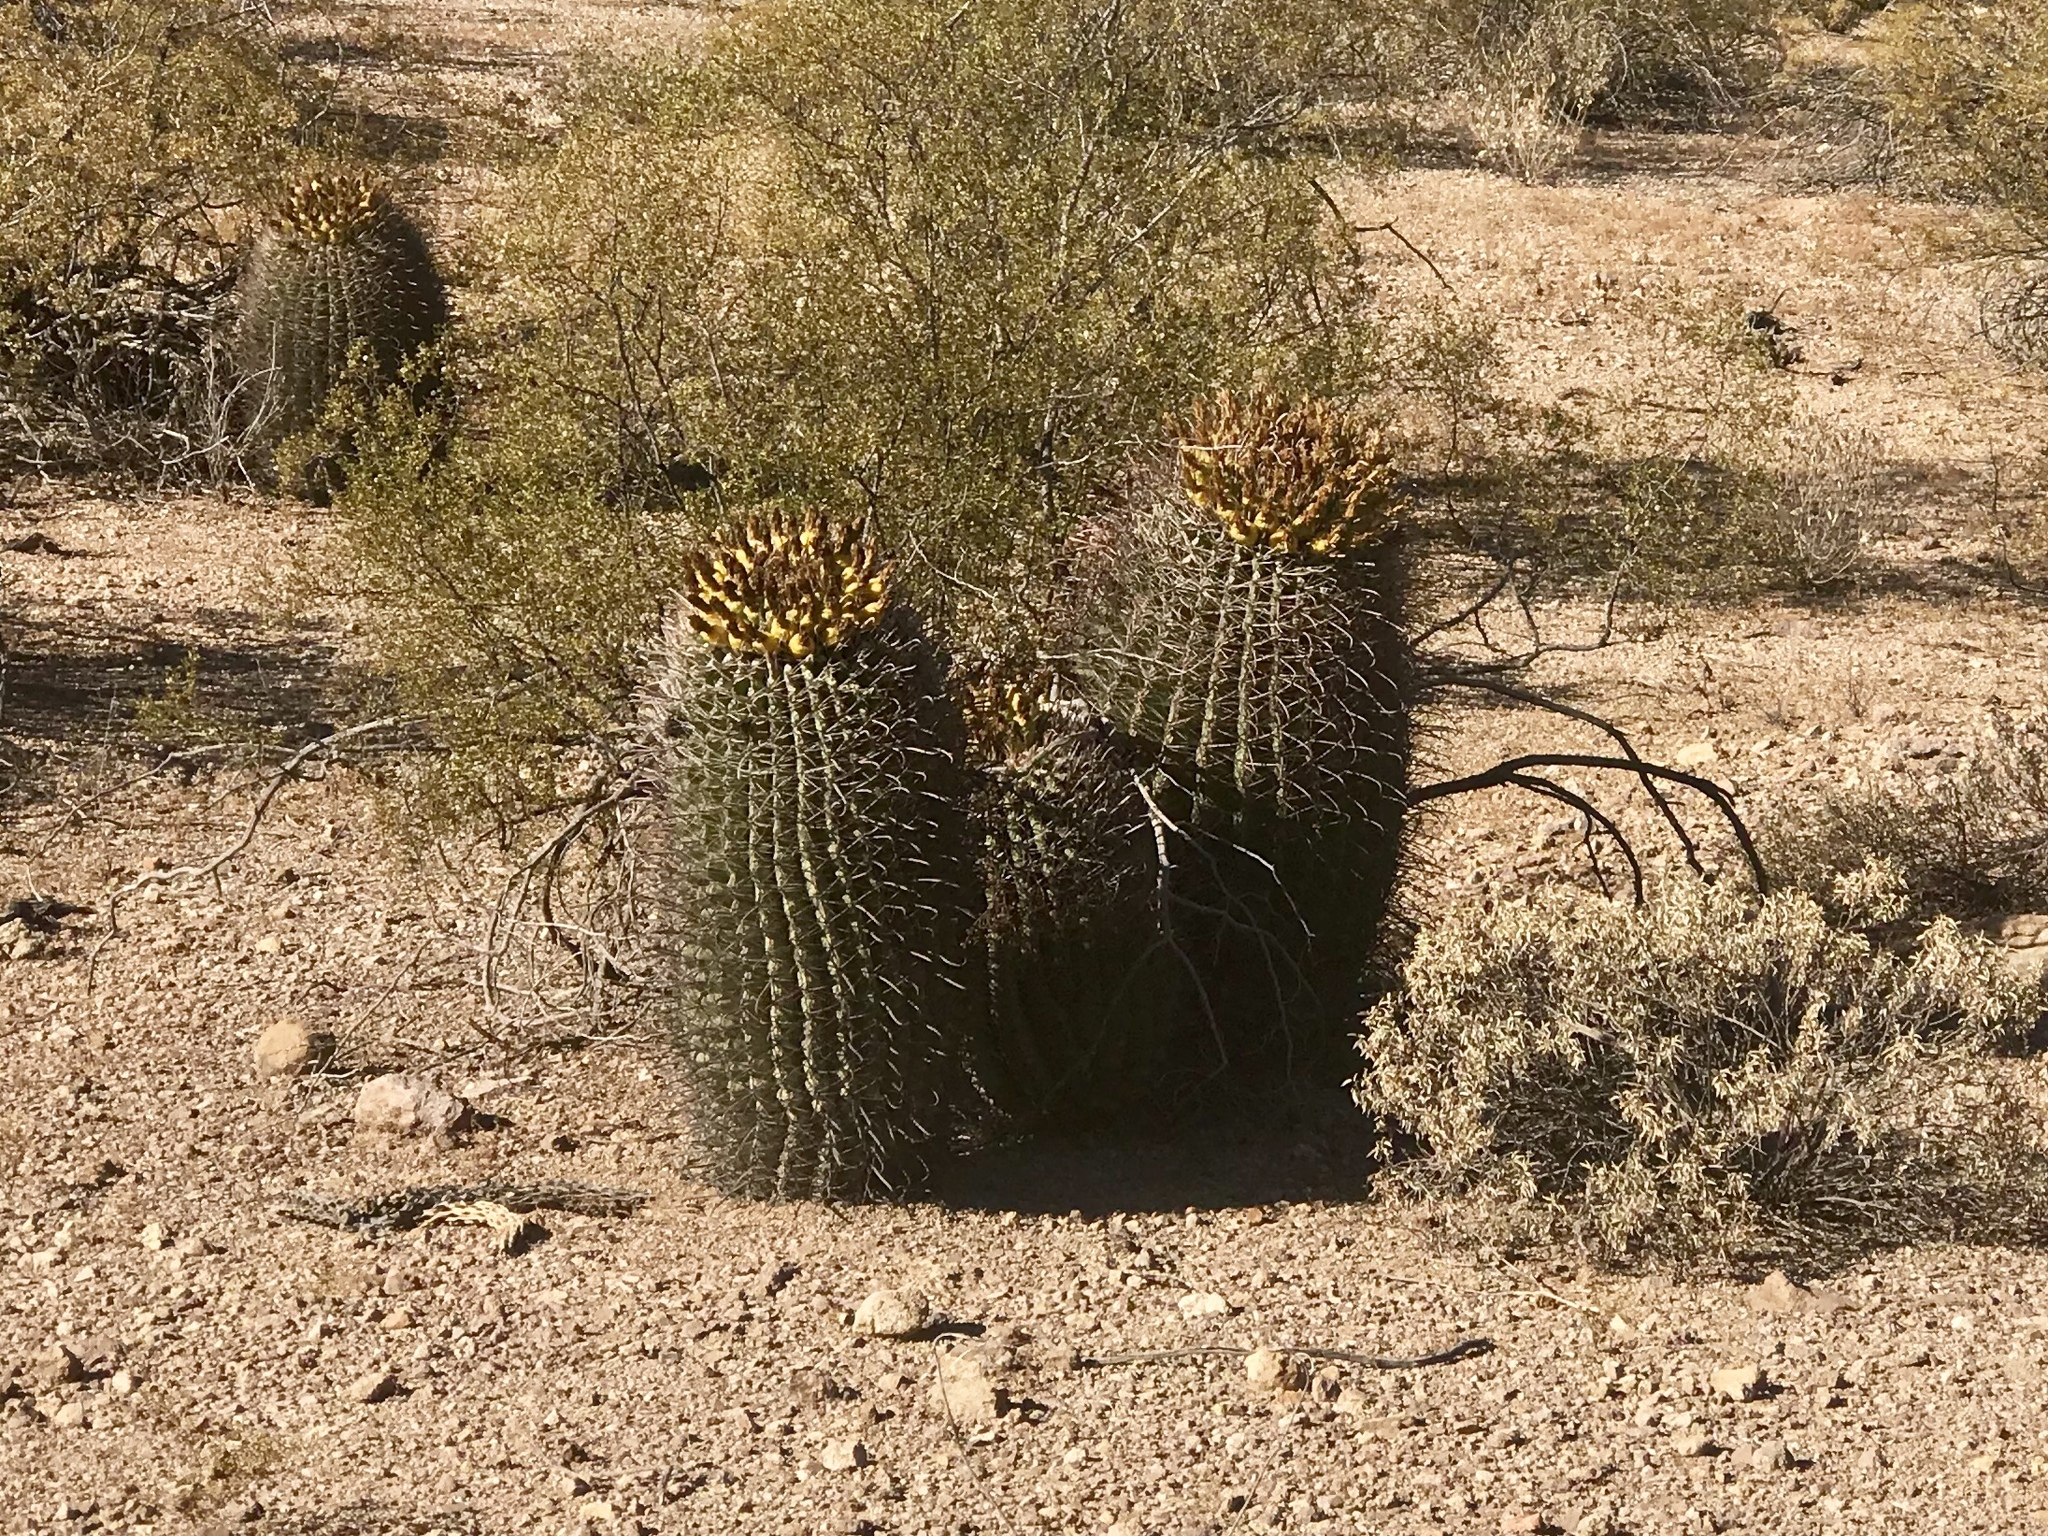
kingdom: Plantae
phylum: Tracheophyta
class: Magnoliopsida
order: Caryophyllales
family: Cactaceae
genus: Ferocactus
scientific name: Ferocactus wislizeni
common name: Candy barrel cactus
